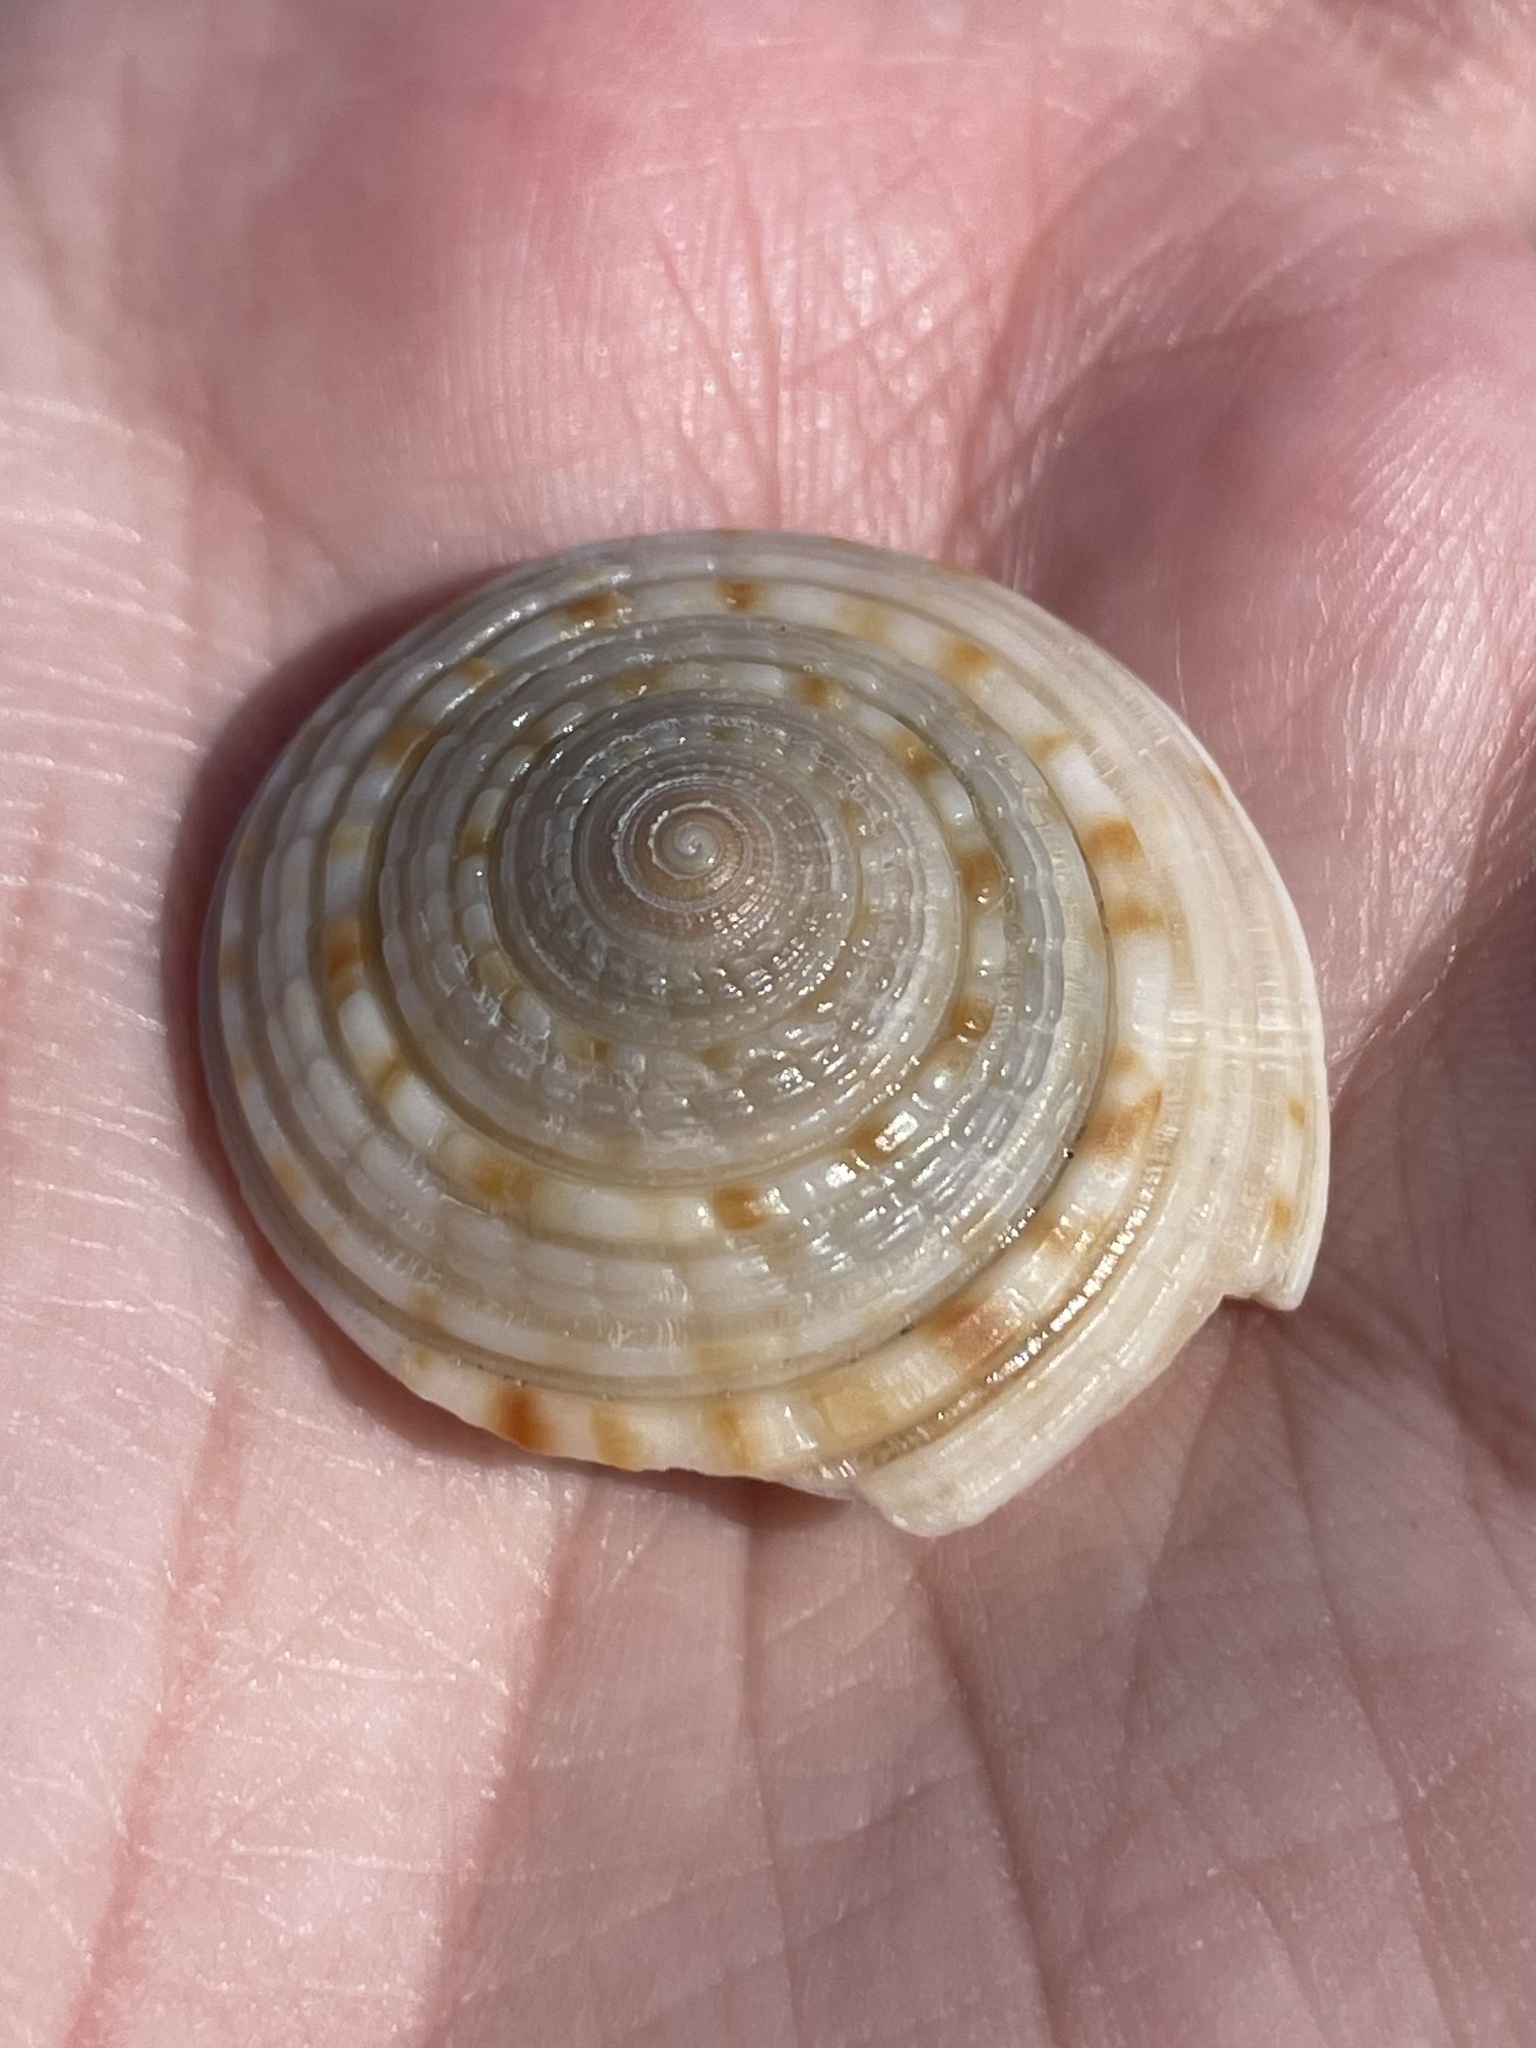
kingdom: Animalia
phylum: Mollusca
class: Gastropoda
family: Architectonicidae
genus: Architectonica
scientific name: Architectonica nobilis
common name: Common sundial
